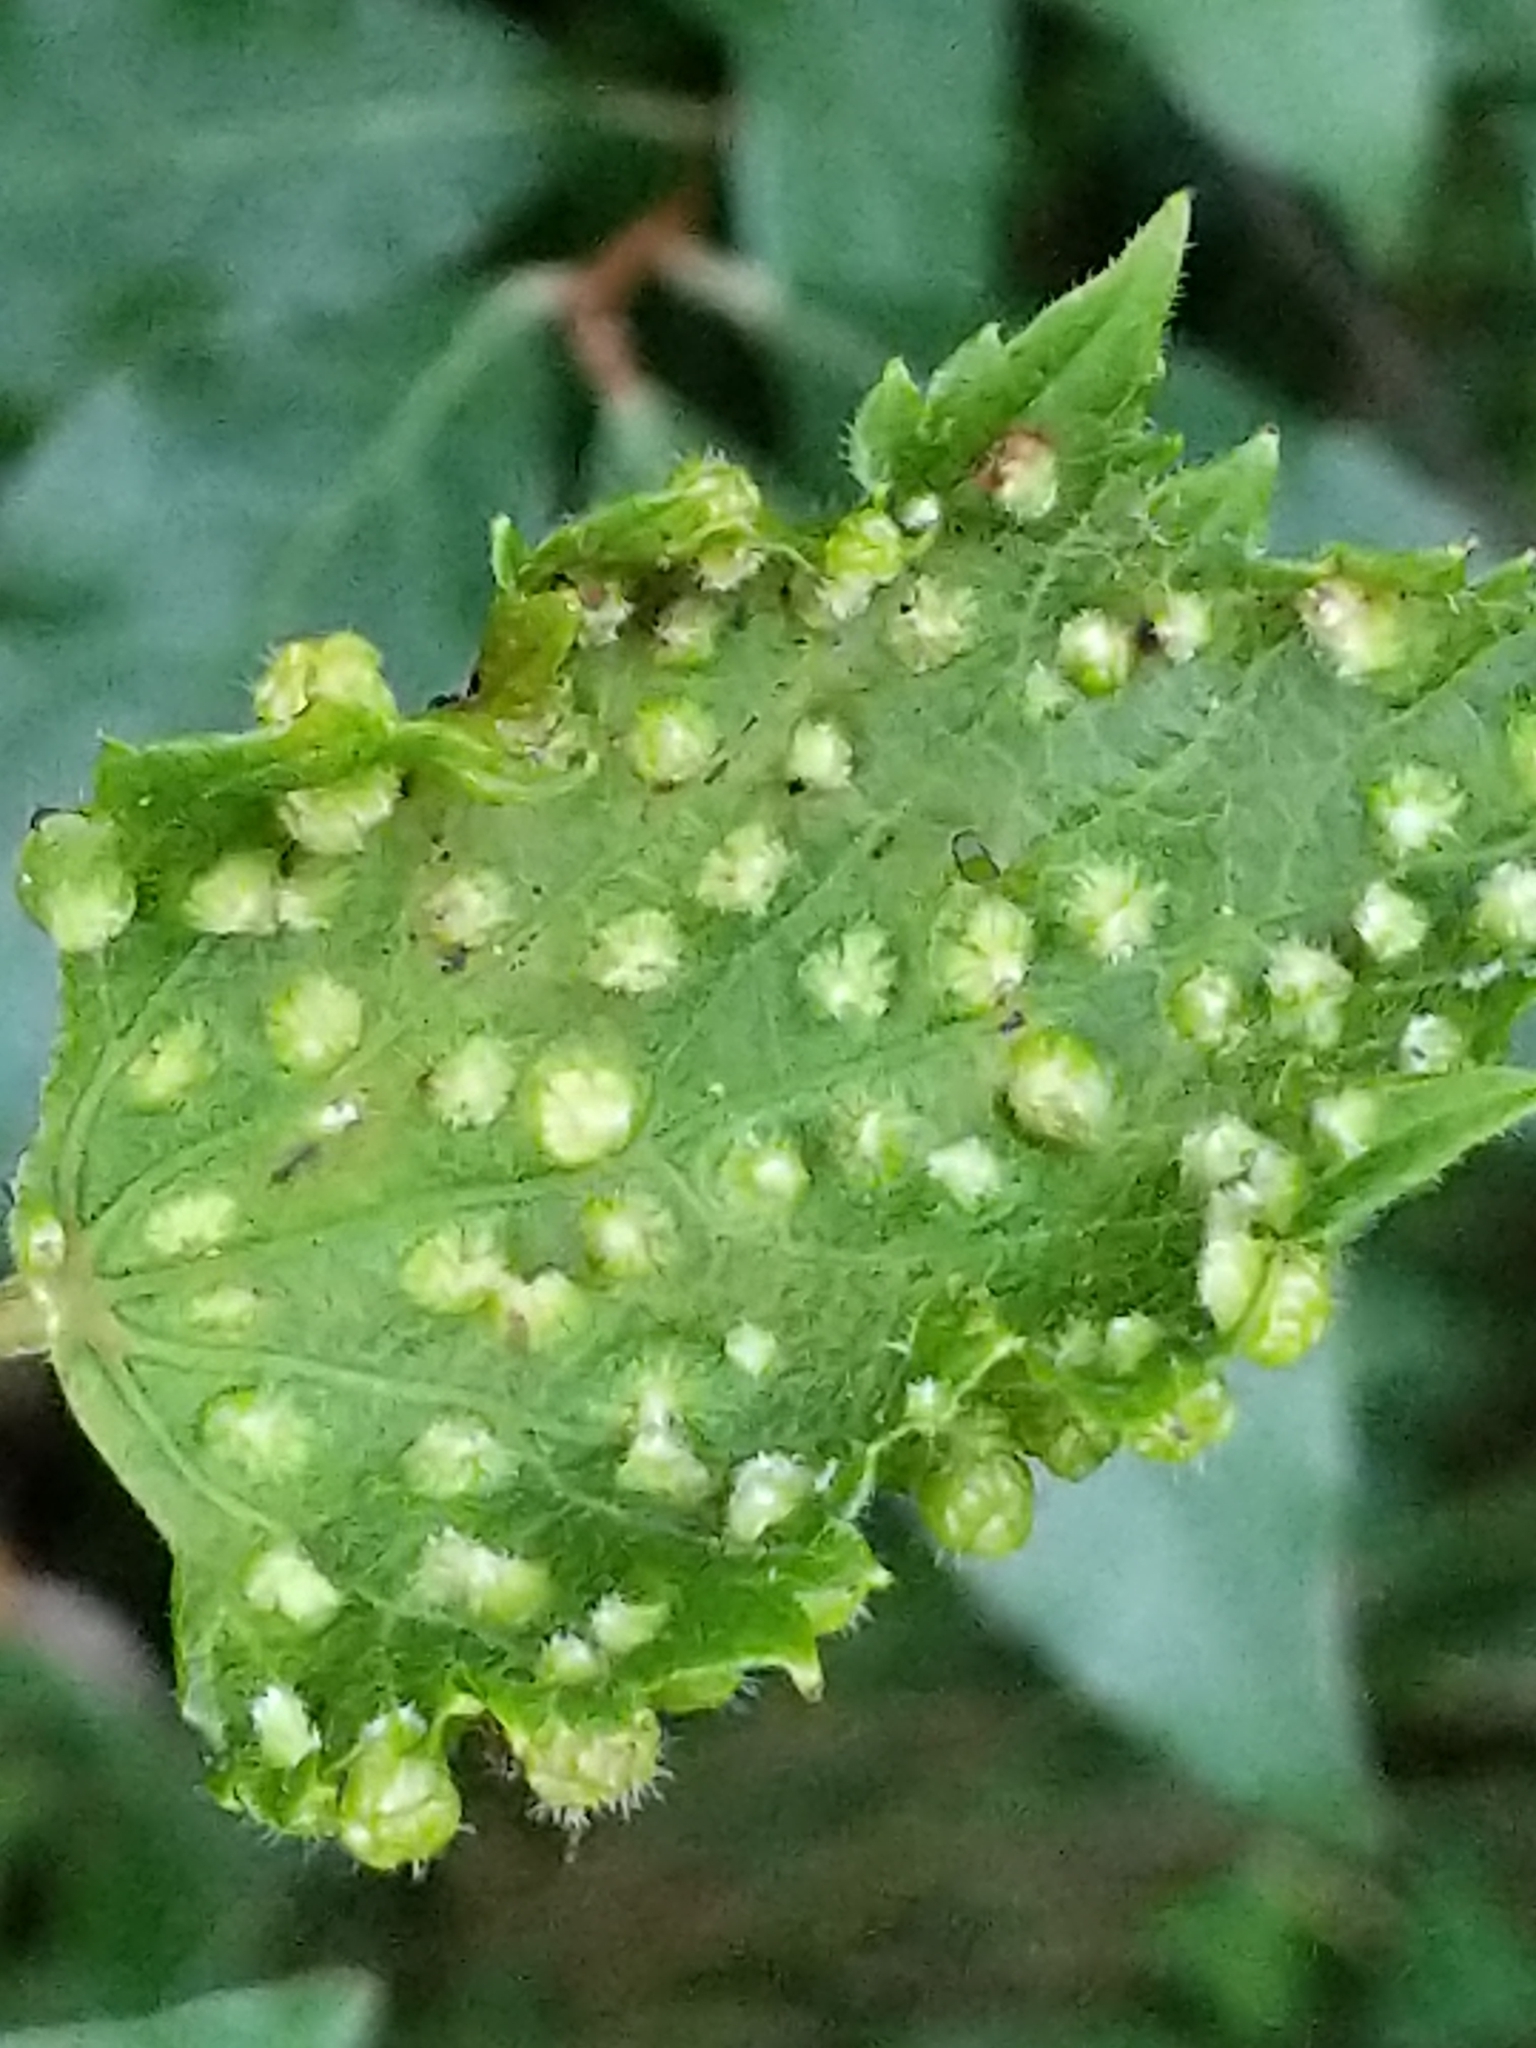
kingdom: Animalia
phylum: Arthropoda
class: Insecta
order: Hemiptera
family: Phylloxeridae
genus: Daktulosphaira
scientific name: Daktulosphaira vitifoliae
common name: Grape phylloxera
